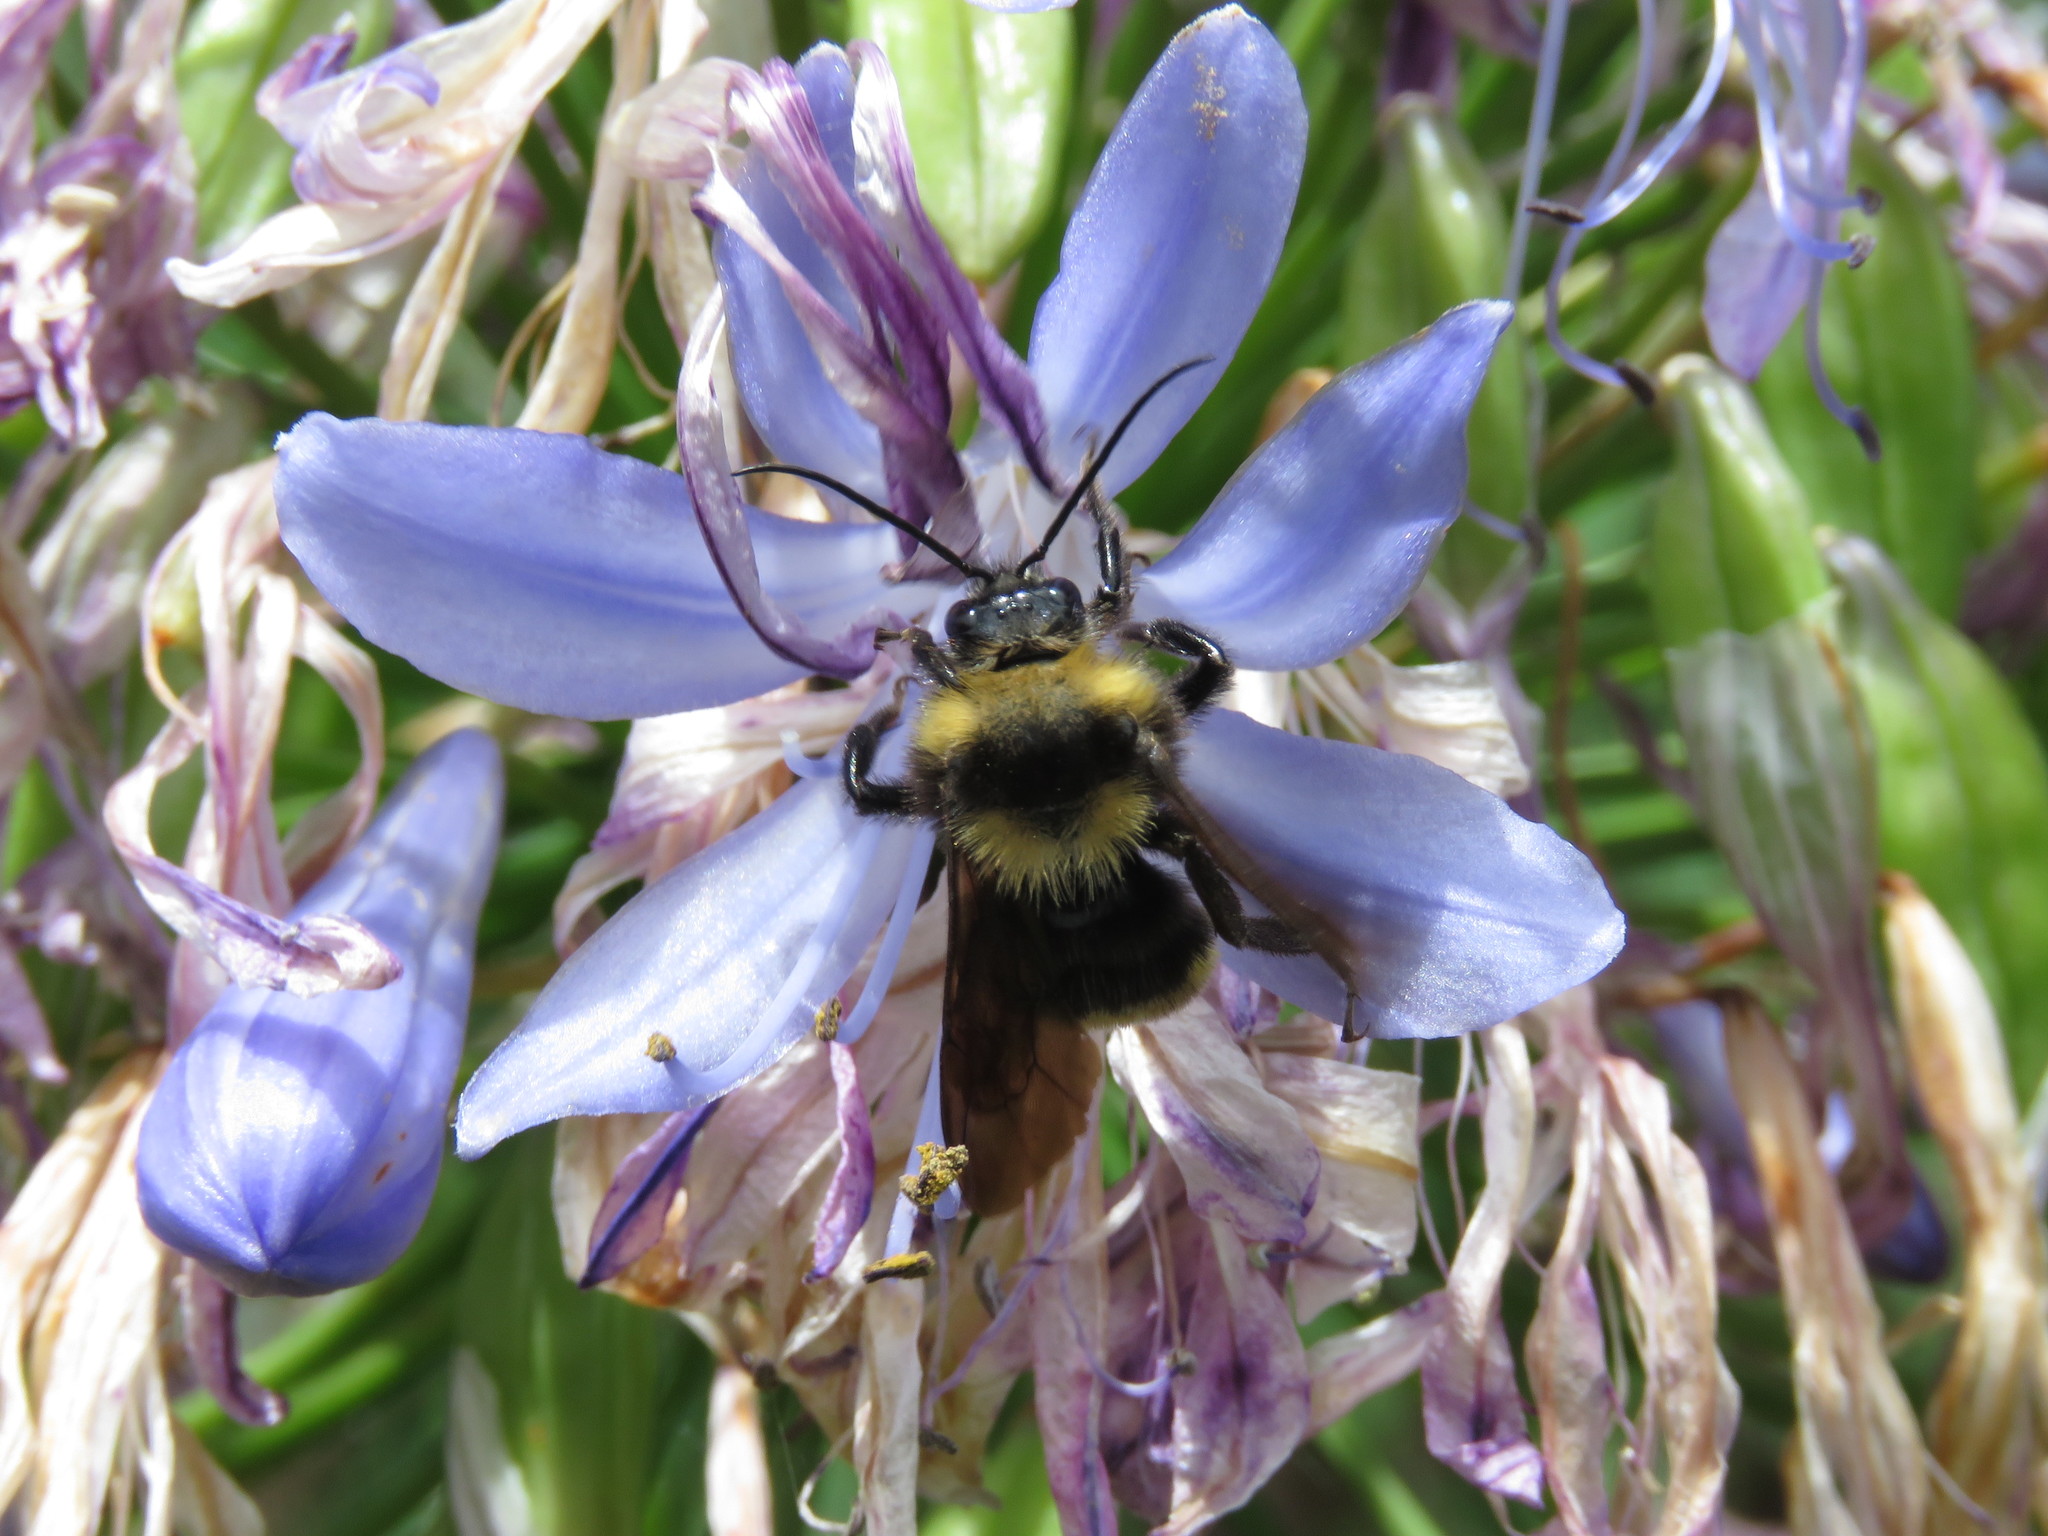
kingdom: Animalia
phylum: Arthropoda
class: Insecta
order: Hymenoptera
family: Apidae
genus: Bombus
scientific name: Bombus pauloensis
